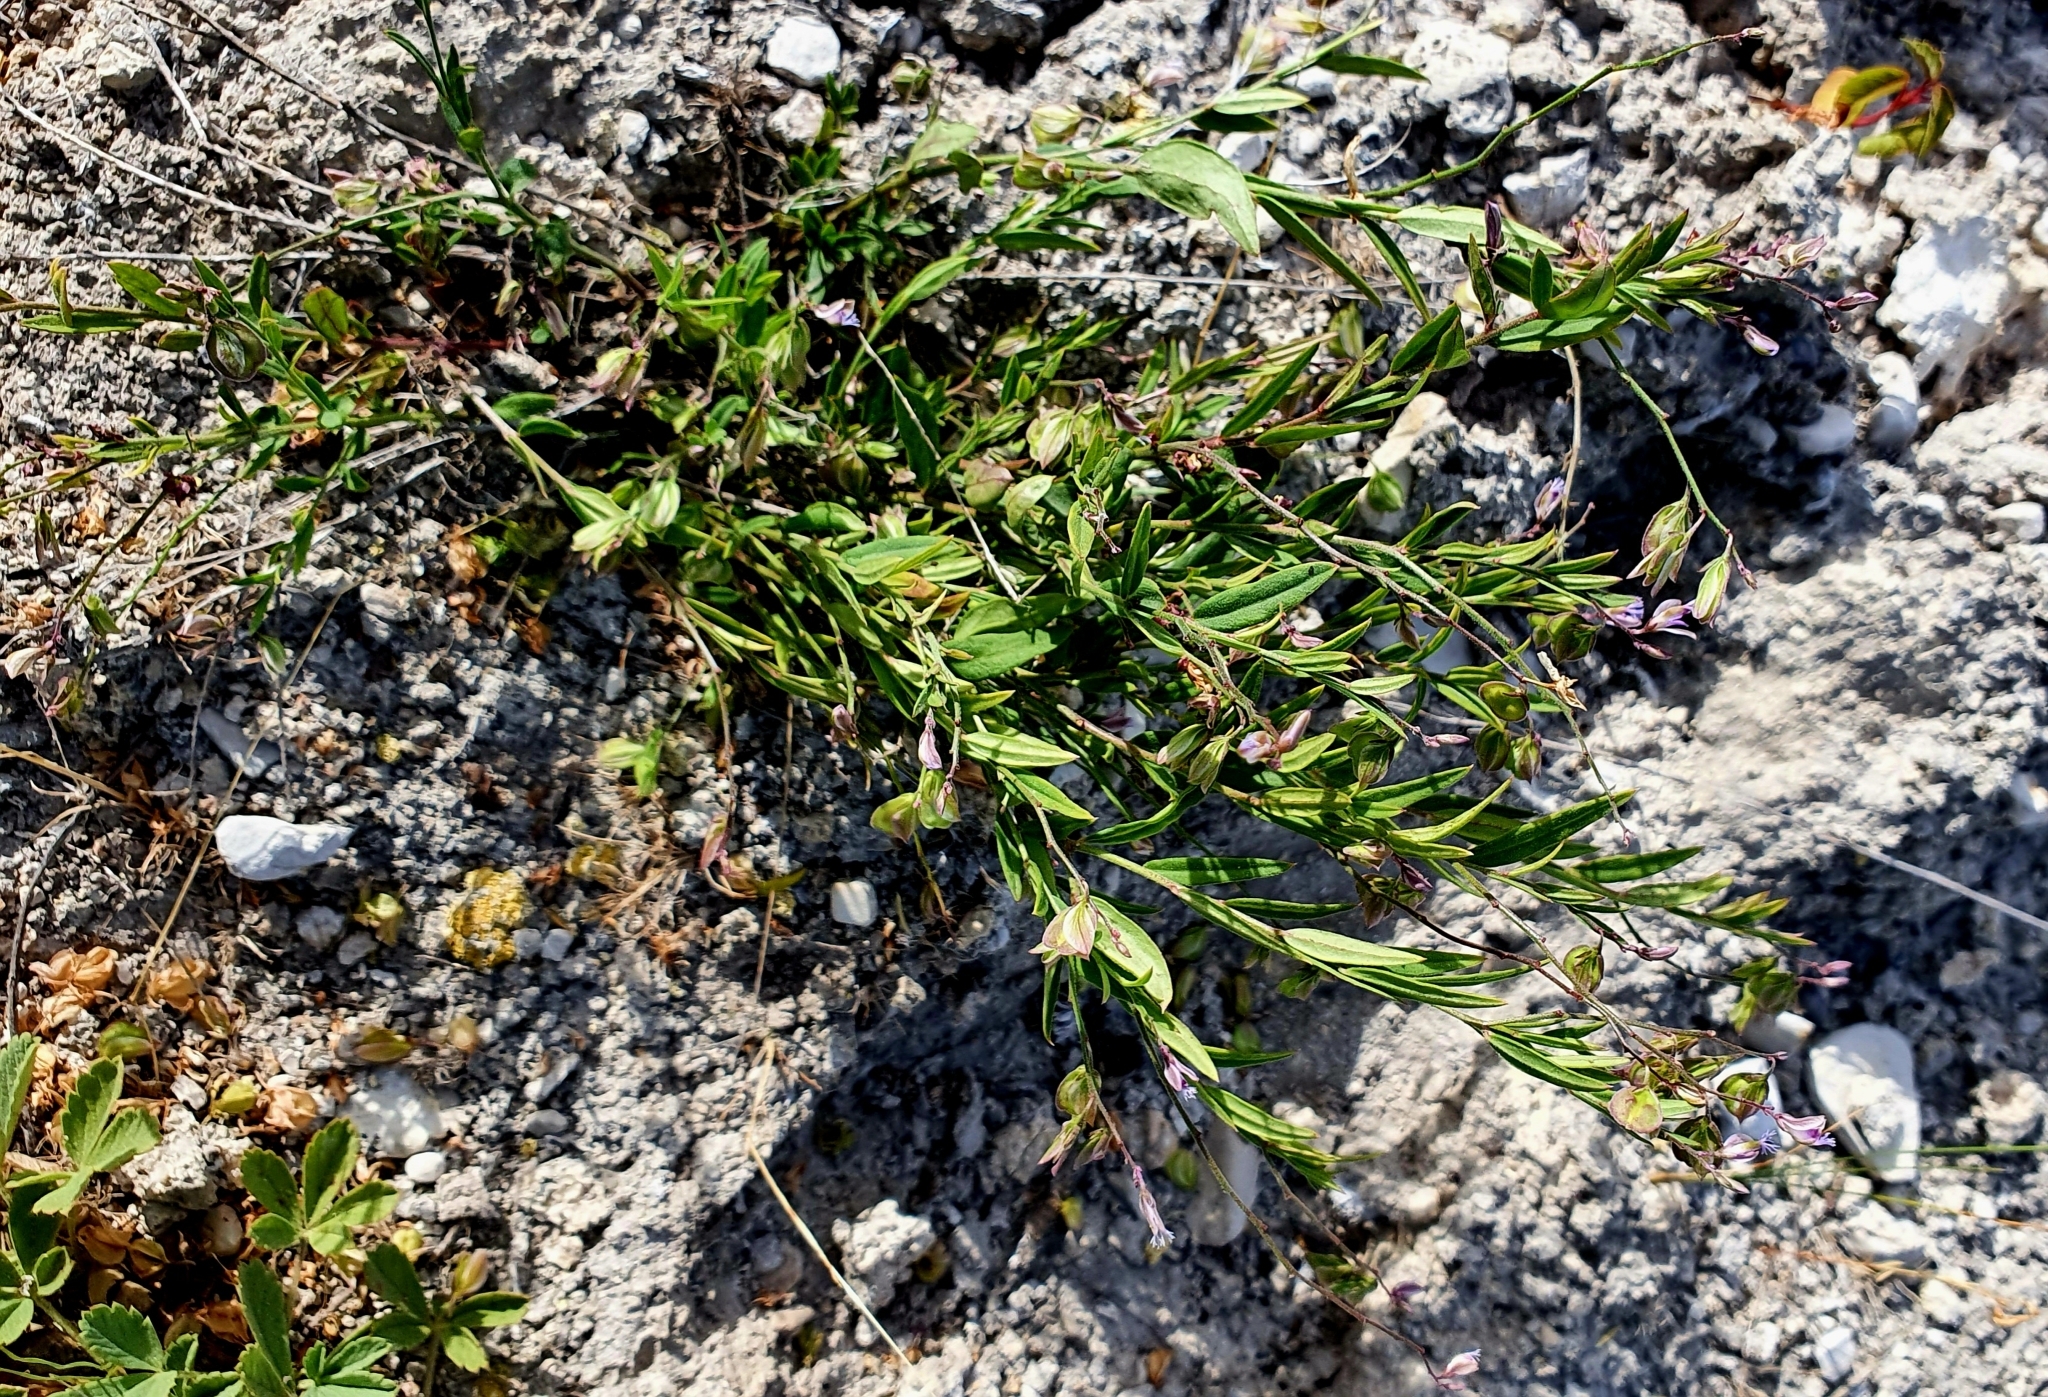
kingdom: Plantae
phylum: Tracheophyta
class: Magnoliopsida
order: Fabales
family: Polygalaceae
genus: Polygala
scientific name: Polygala sibirica
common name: Siberian polygala
